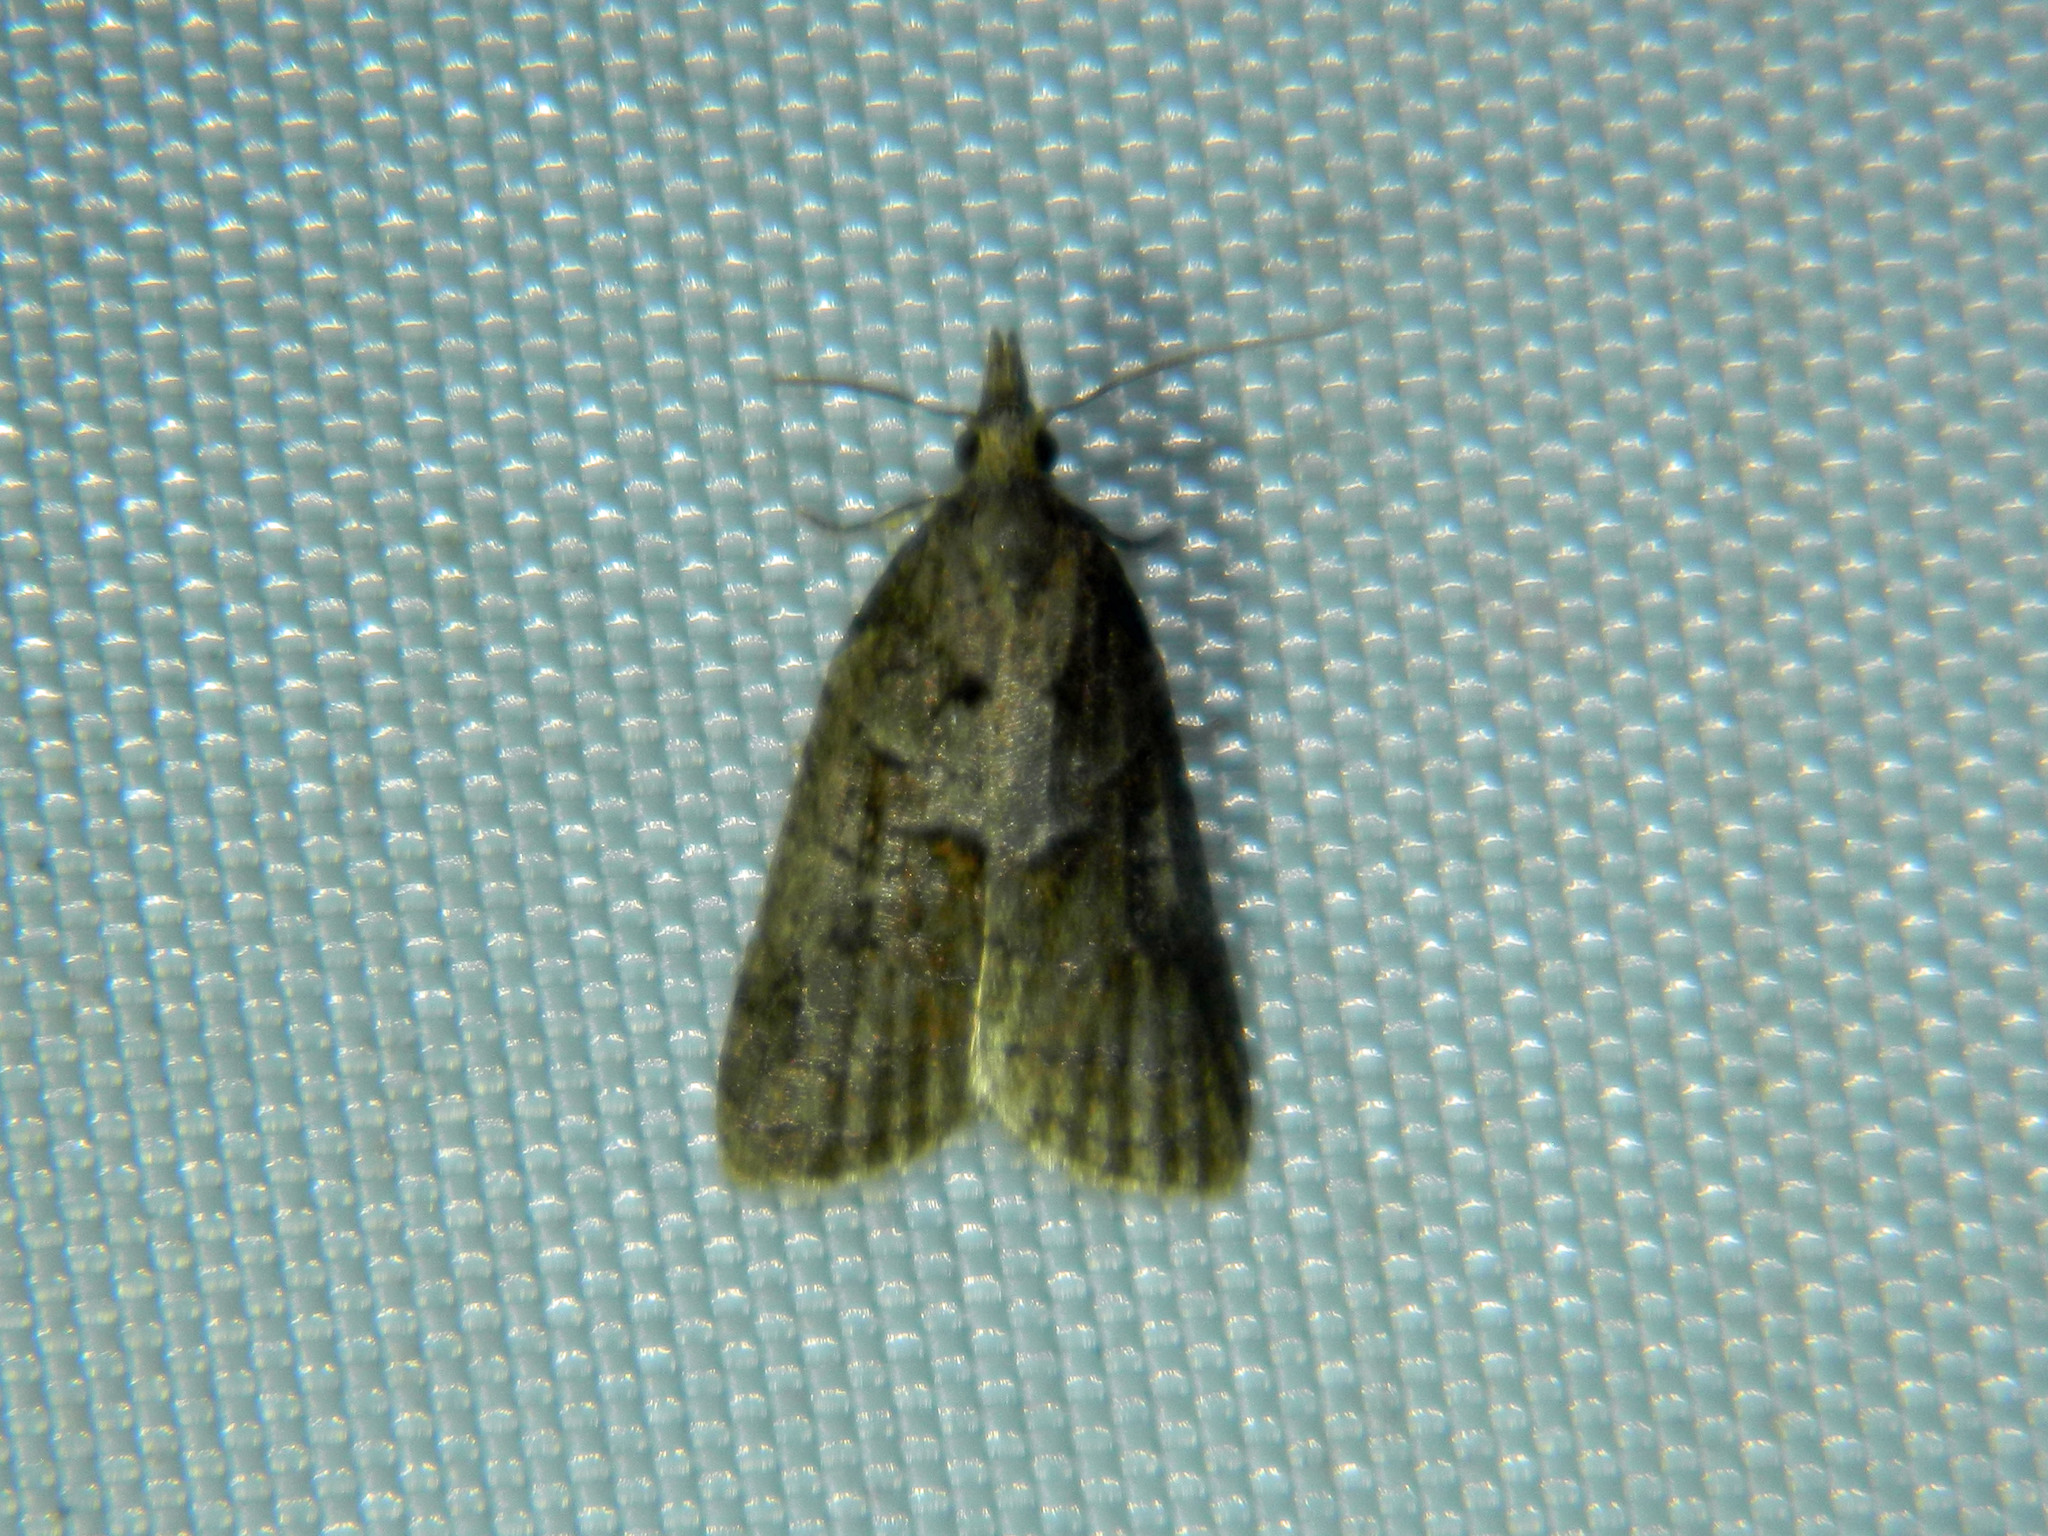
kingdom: Animalia
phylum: Arthropoda
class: Insecta
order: Lepidoptera
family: Tortricidae
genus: Platynota
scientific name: Platynota idaeusalis
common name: Tufted apple bud moth
